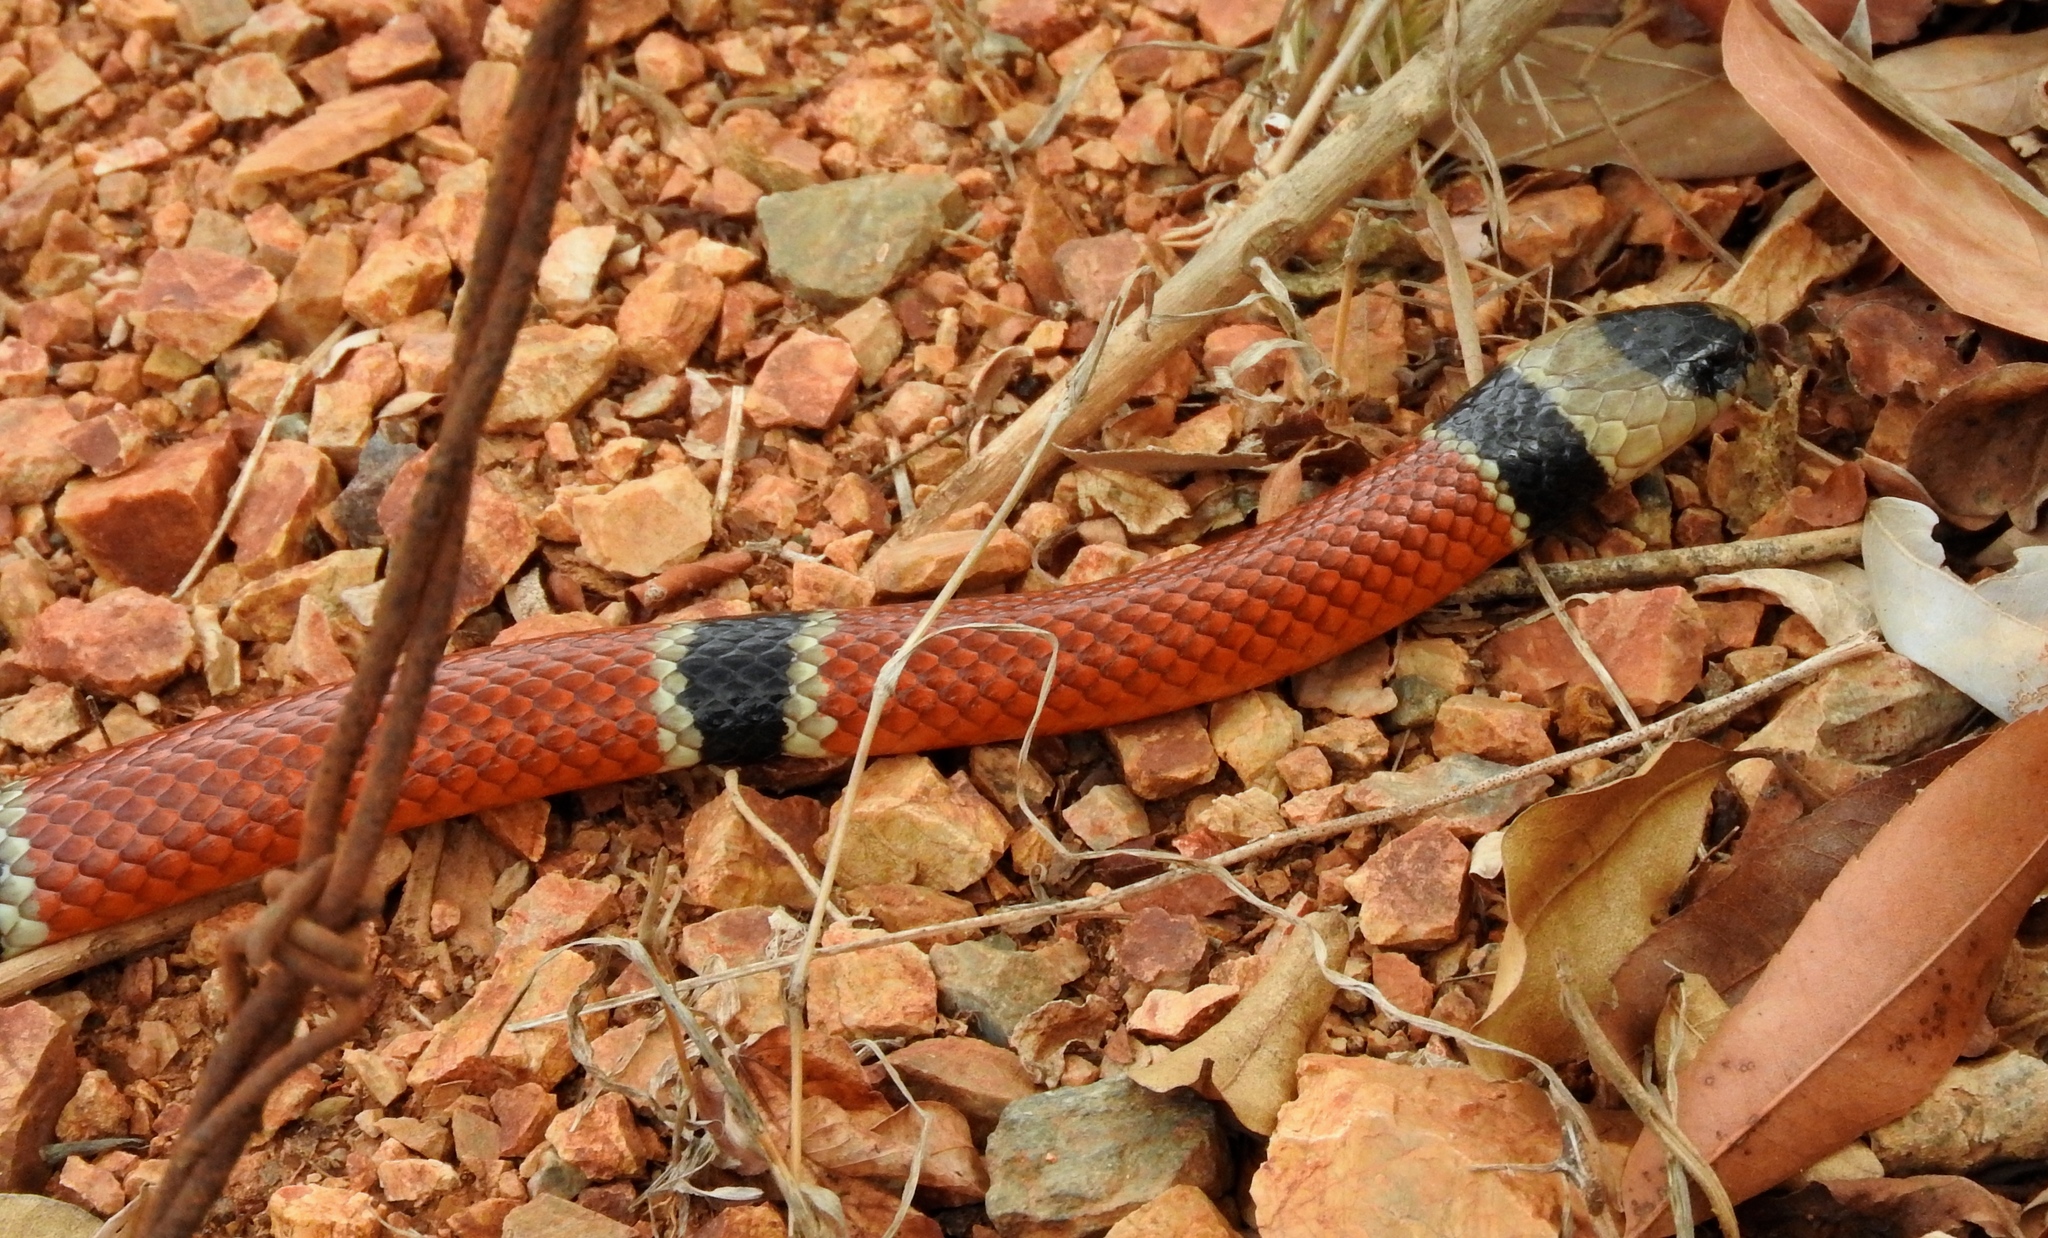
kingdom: Animalia
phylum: Chordata
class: Squamata
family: Elapidae
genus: Micrurus
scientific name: Micrurus distans
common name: Clear-banded coral snake
